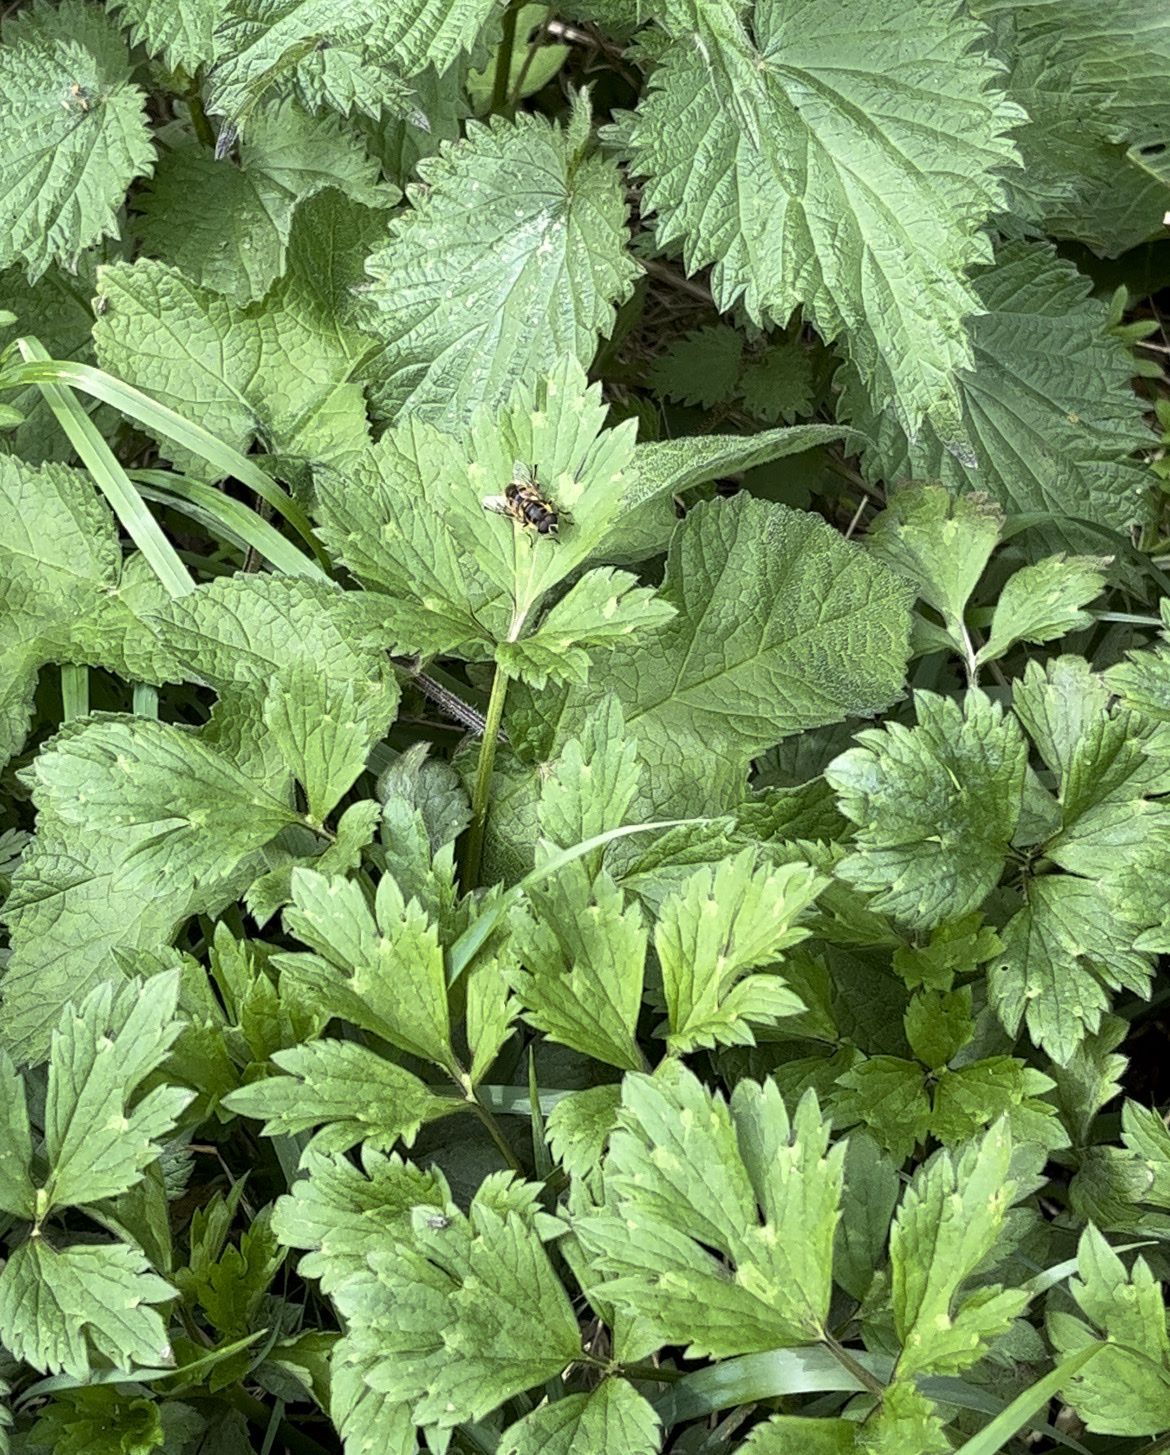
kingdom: Animalia
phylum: Arthropoda
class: Insecta
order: Diptera
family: Syrphidae
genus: Myathropa
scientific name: Myathropa florea
